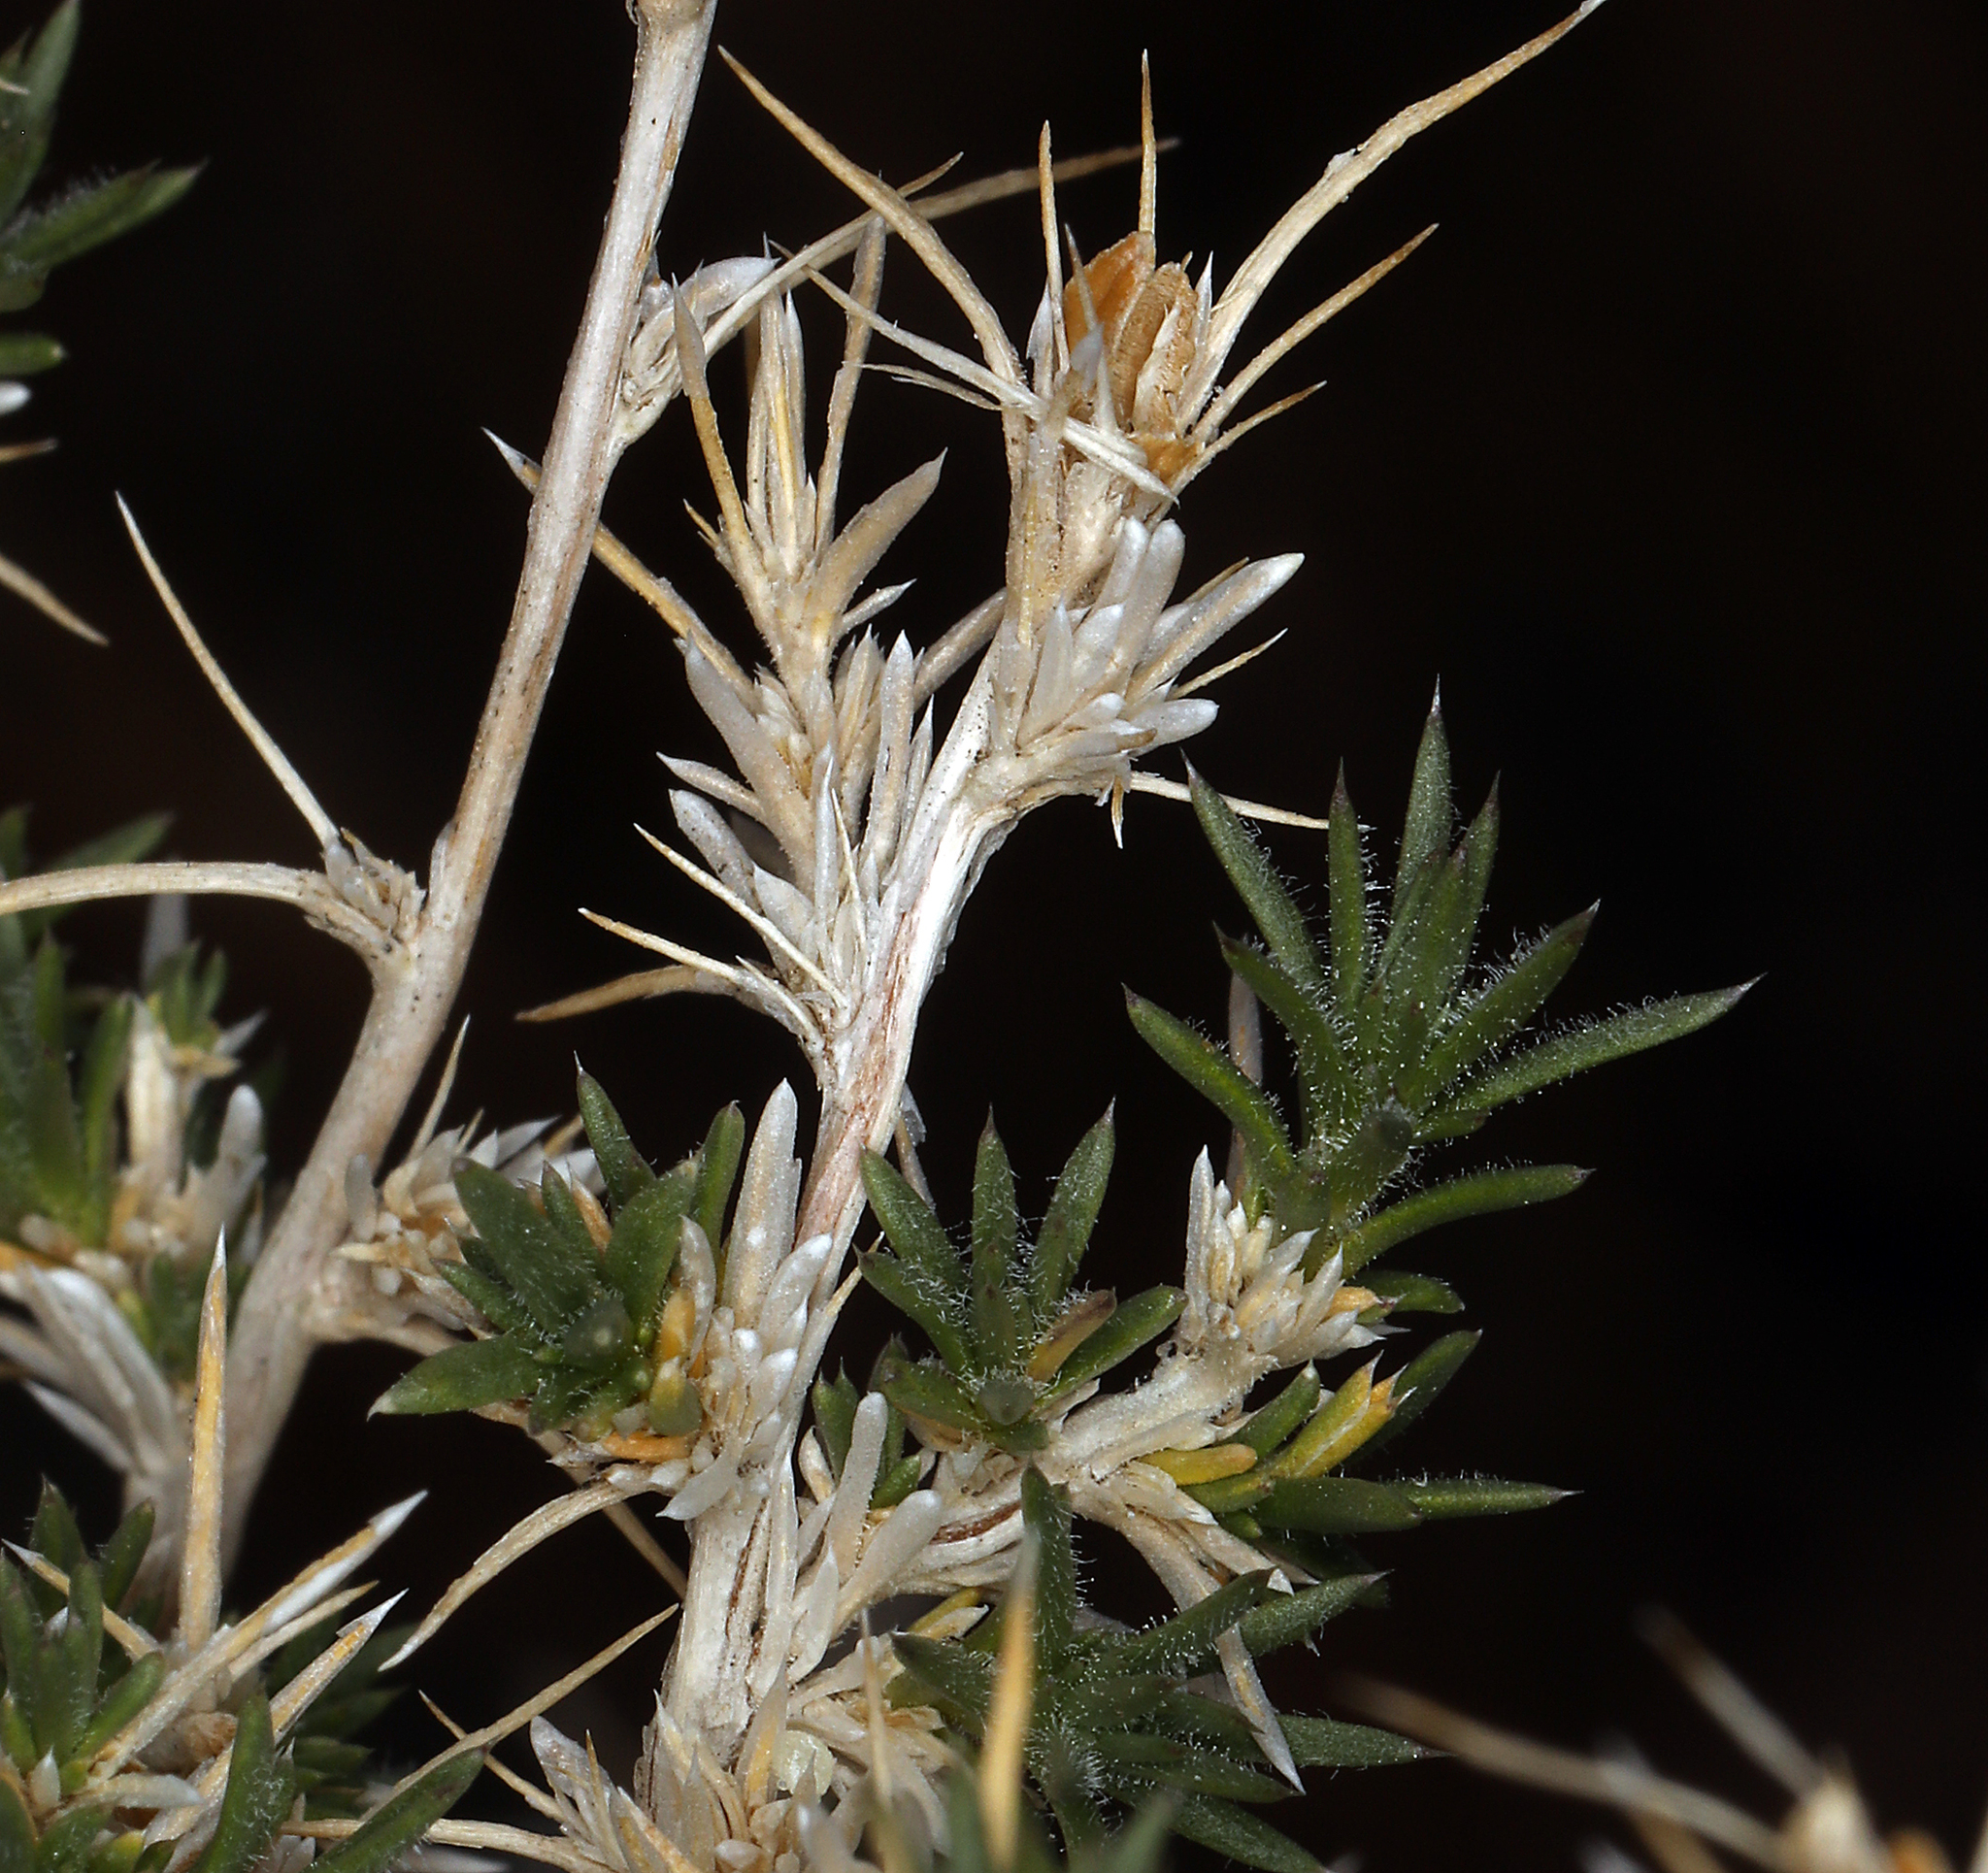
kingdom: Plantae
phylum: Tracheophyta
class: Magnoliopsida
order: Ericales
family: Polemoniaceae
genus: Linanthus
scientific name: Linanthus pungens
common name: Granite prickly phlox
